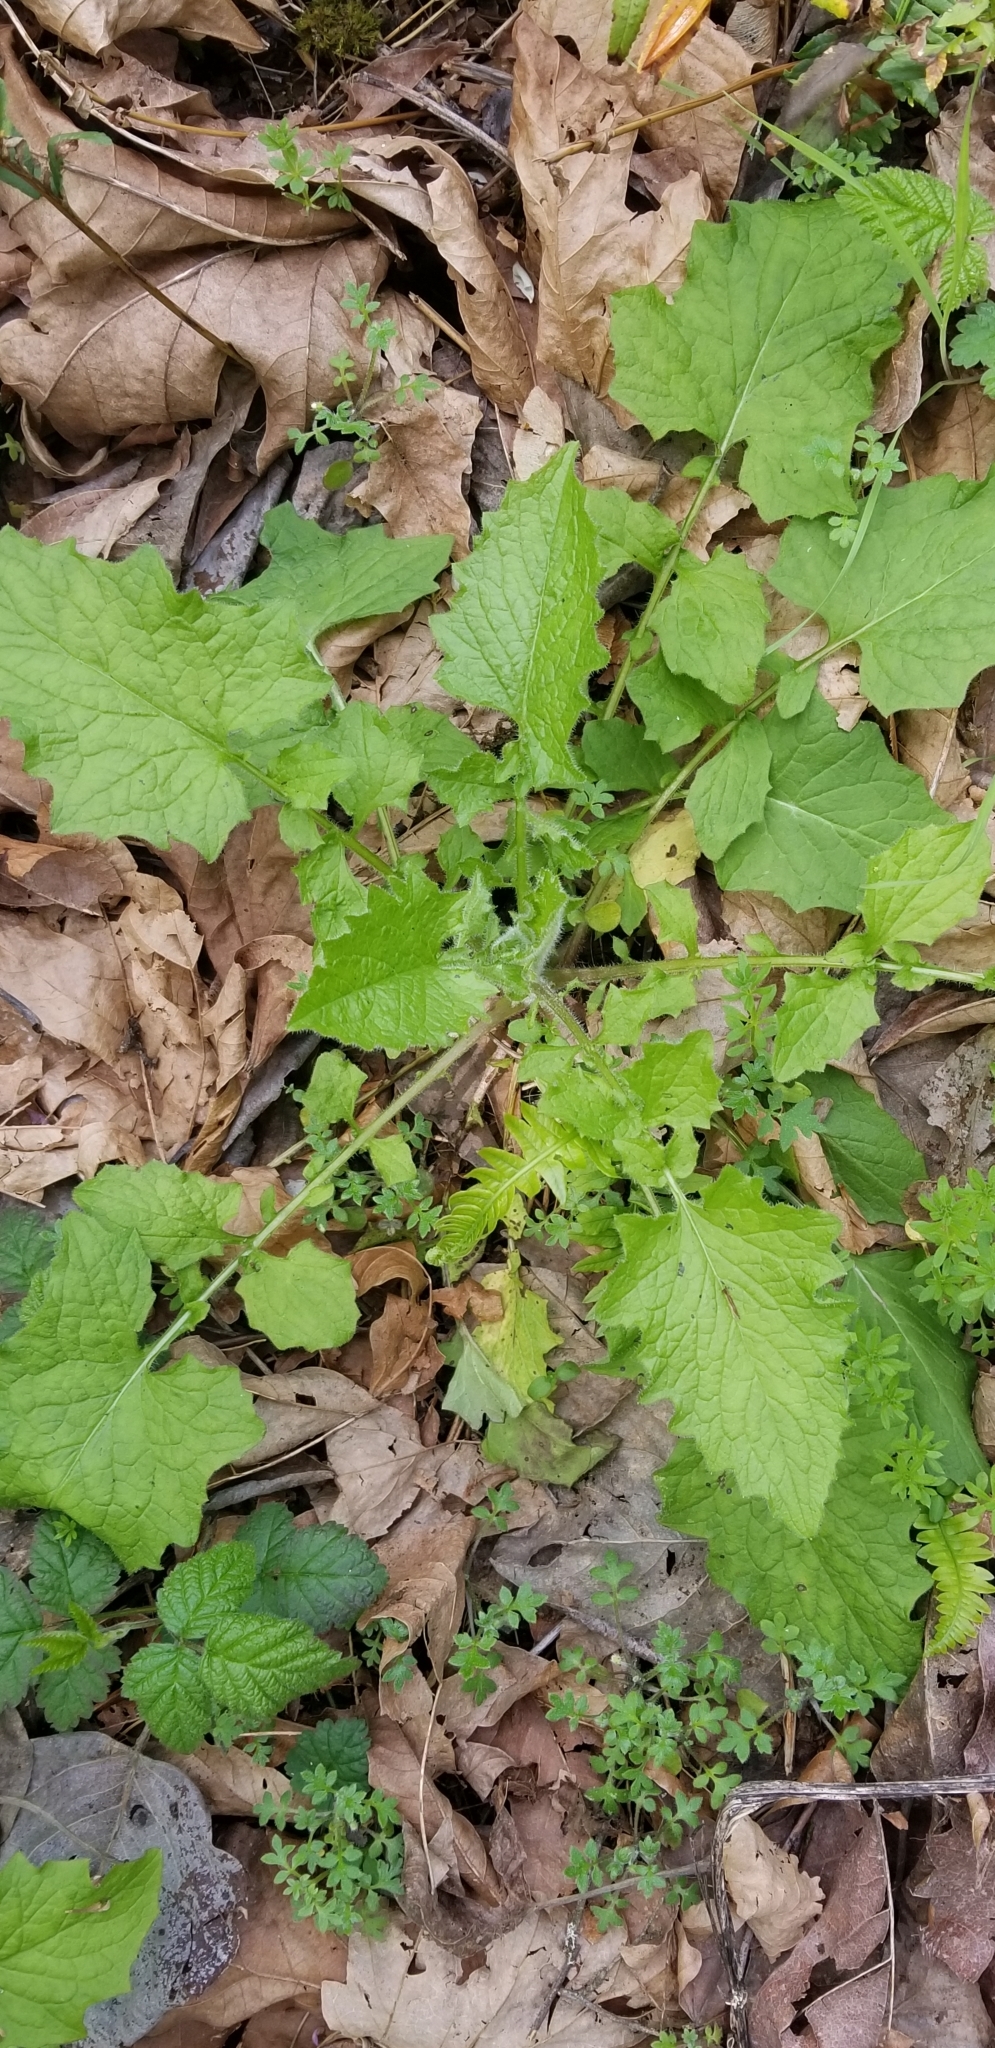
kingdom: Plantae
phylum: Tracheophyta
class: Magnoliopsida
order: Asterales
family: Asteraceae
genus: Lapsana
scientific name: Lapsana communis
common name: Nipplewort
